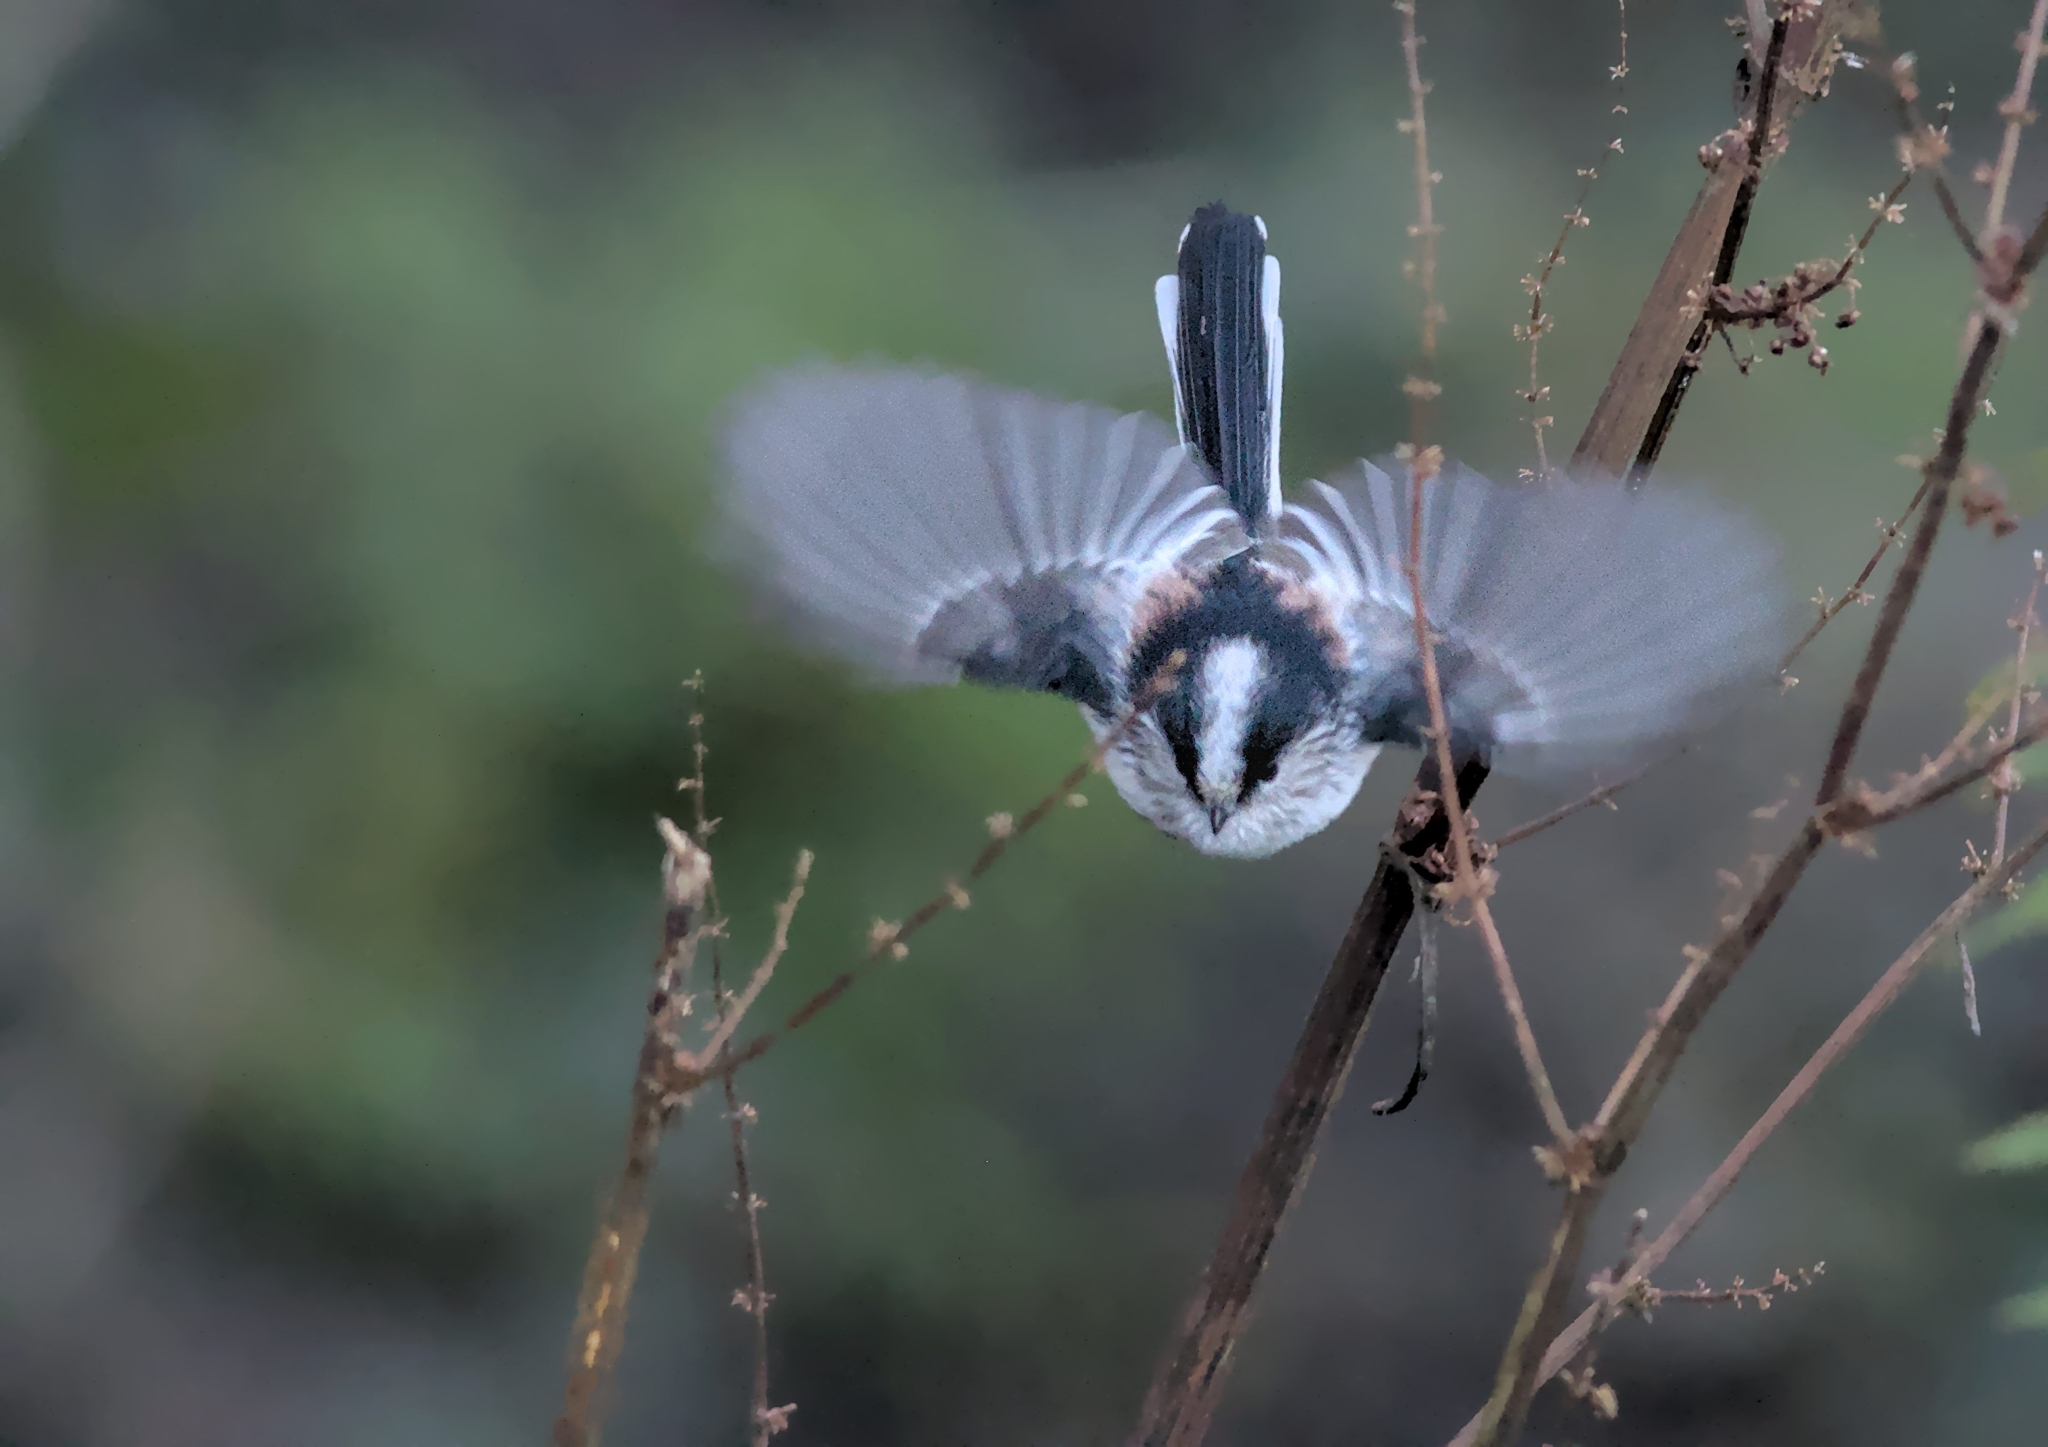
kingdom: Animalia
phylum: Chordata
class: Aves
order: Passeriformes
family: Aegithalidae
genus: Aegithalos
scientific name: Aegithalos caudatus
